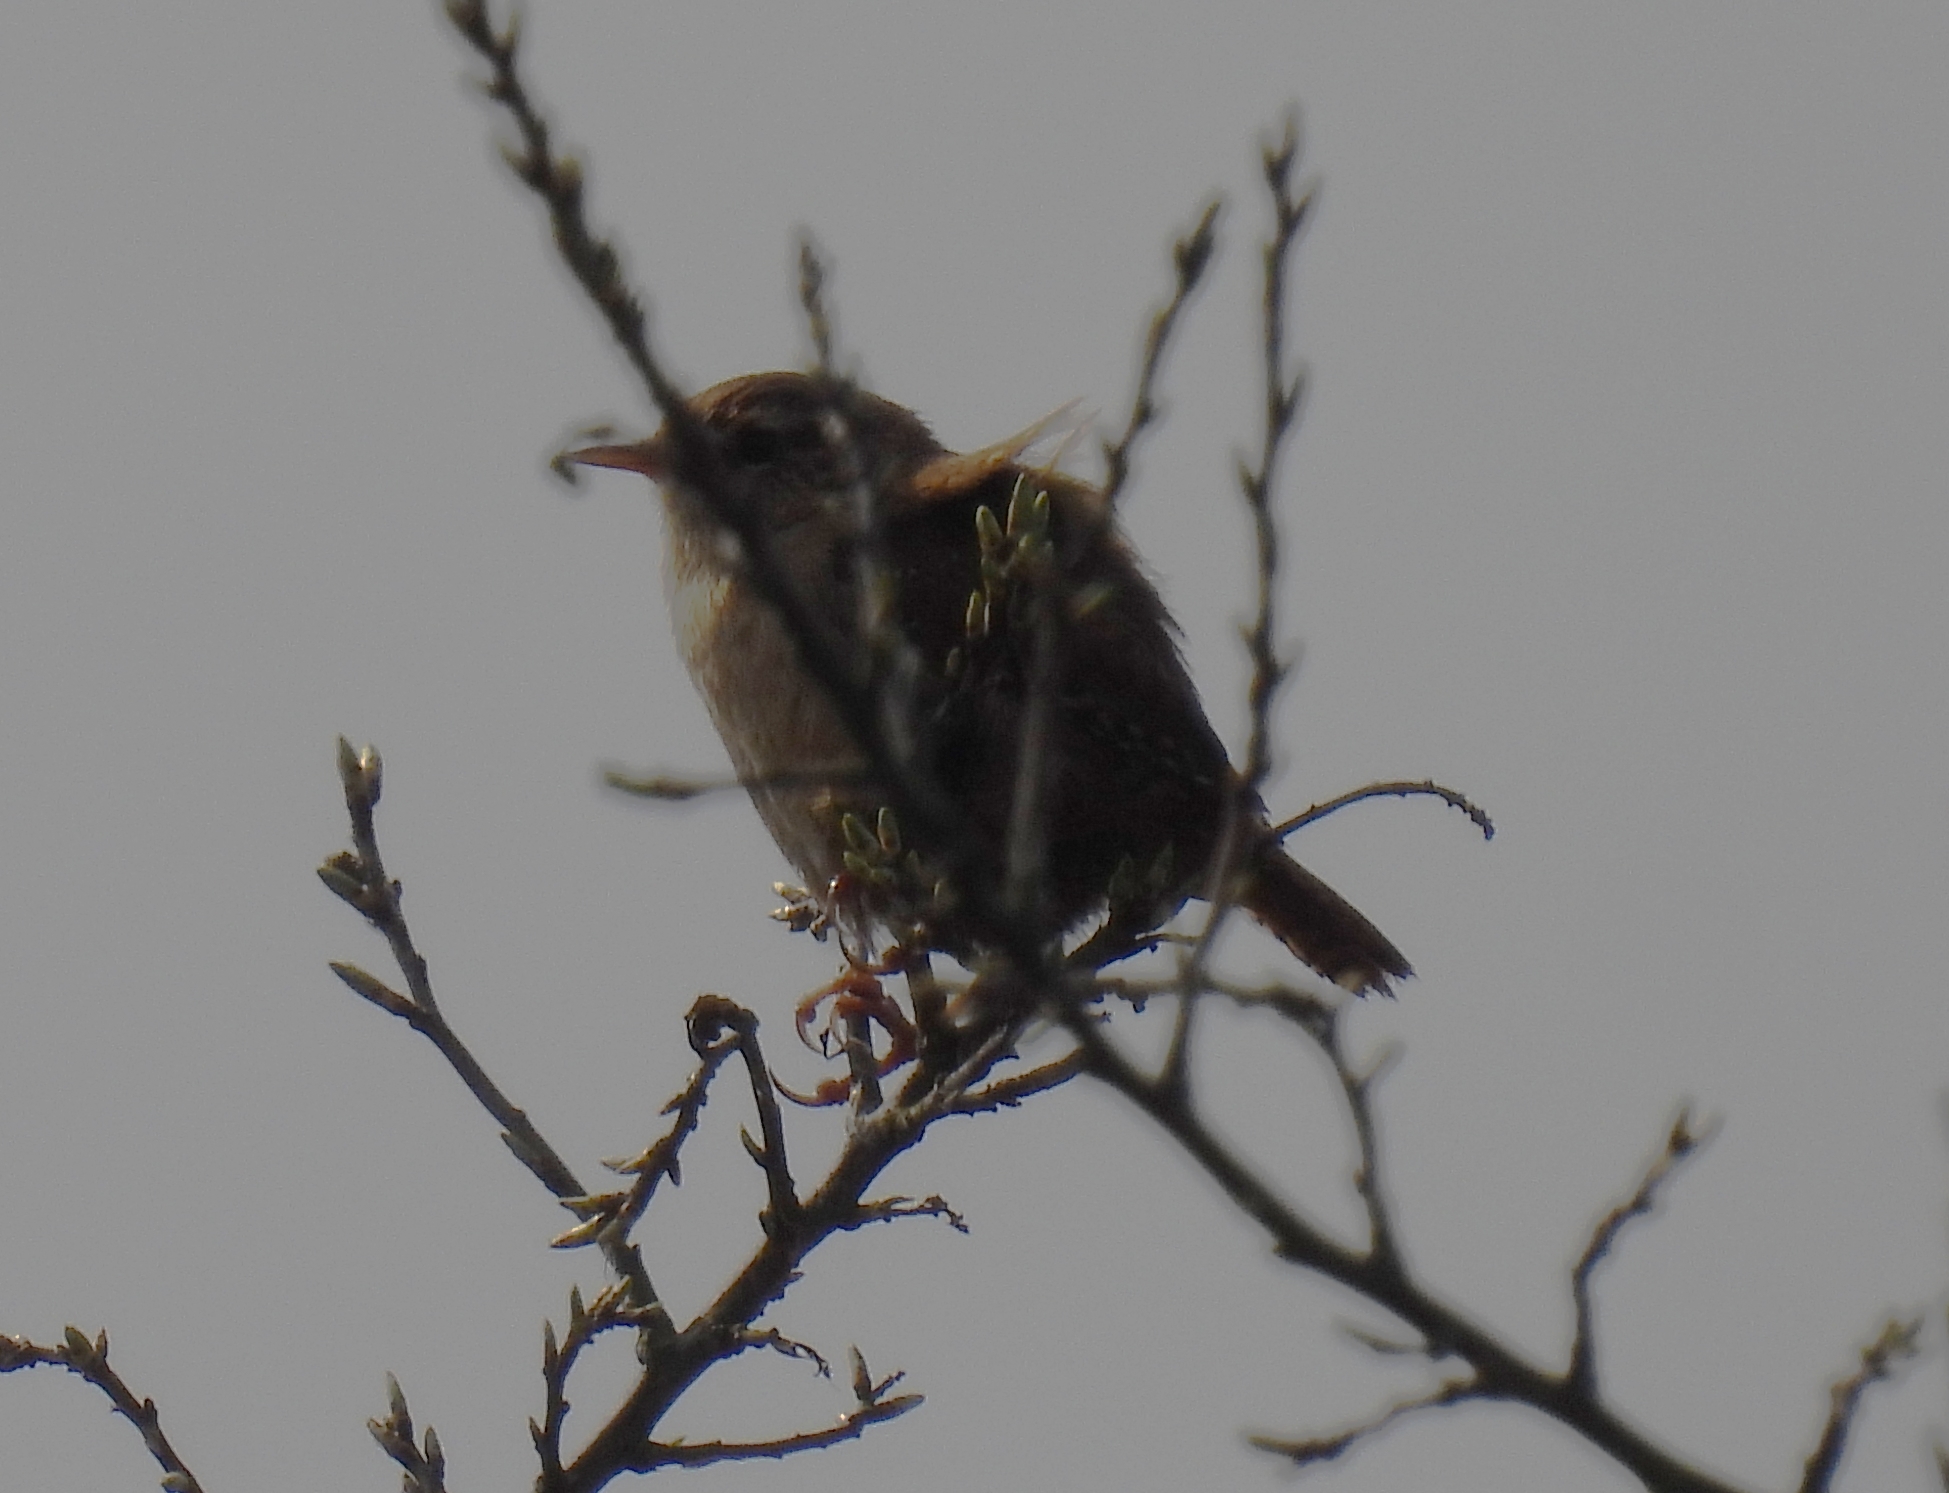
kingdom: Animalia
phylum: Chordata
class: Aves
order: Passeriformes
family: Troglodytidae
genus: Troglodytes
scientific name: Troglodytes troglodytes
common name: Eurasian wren
